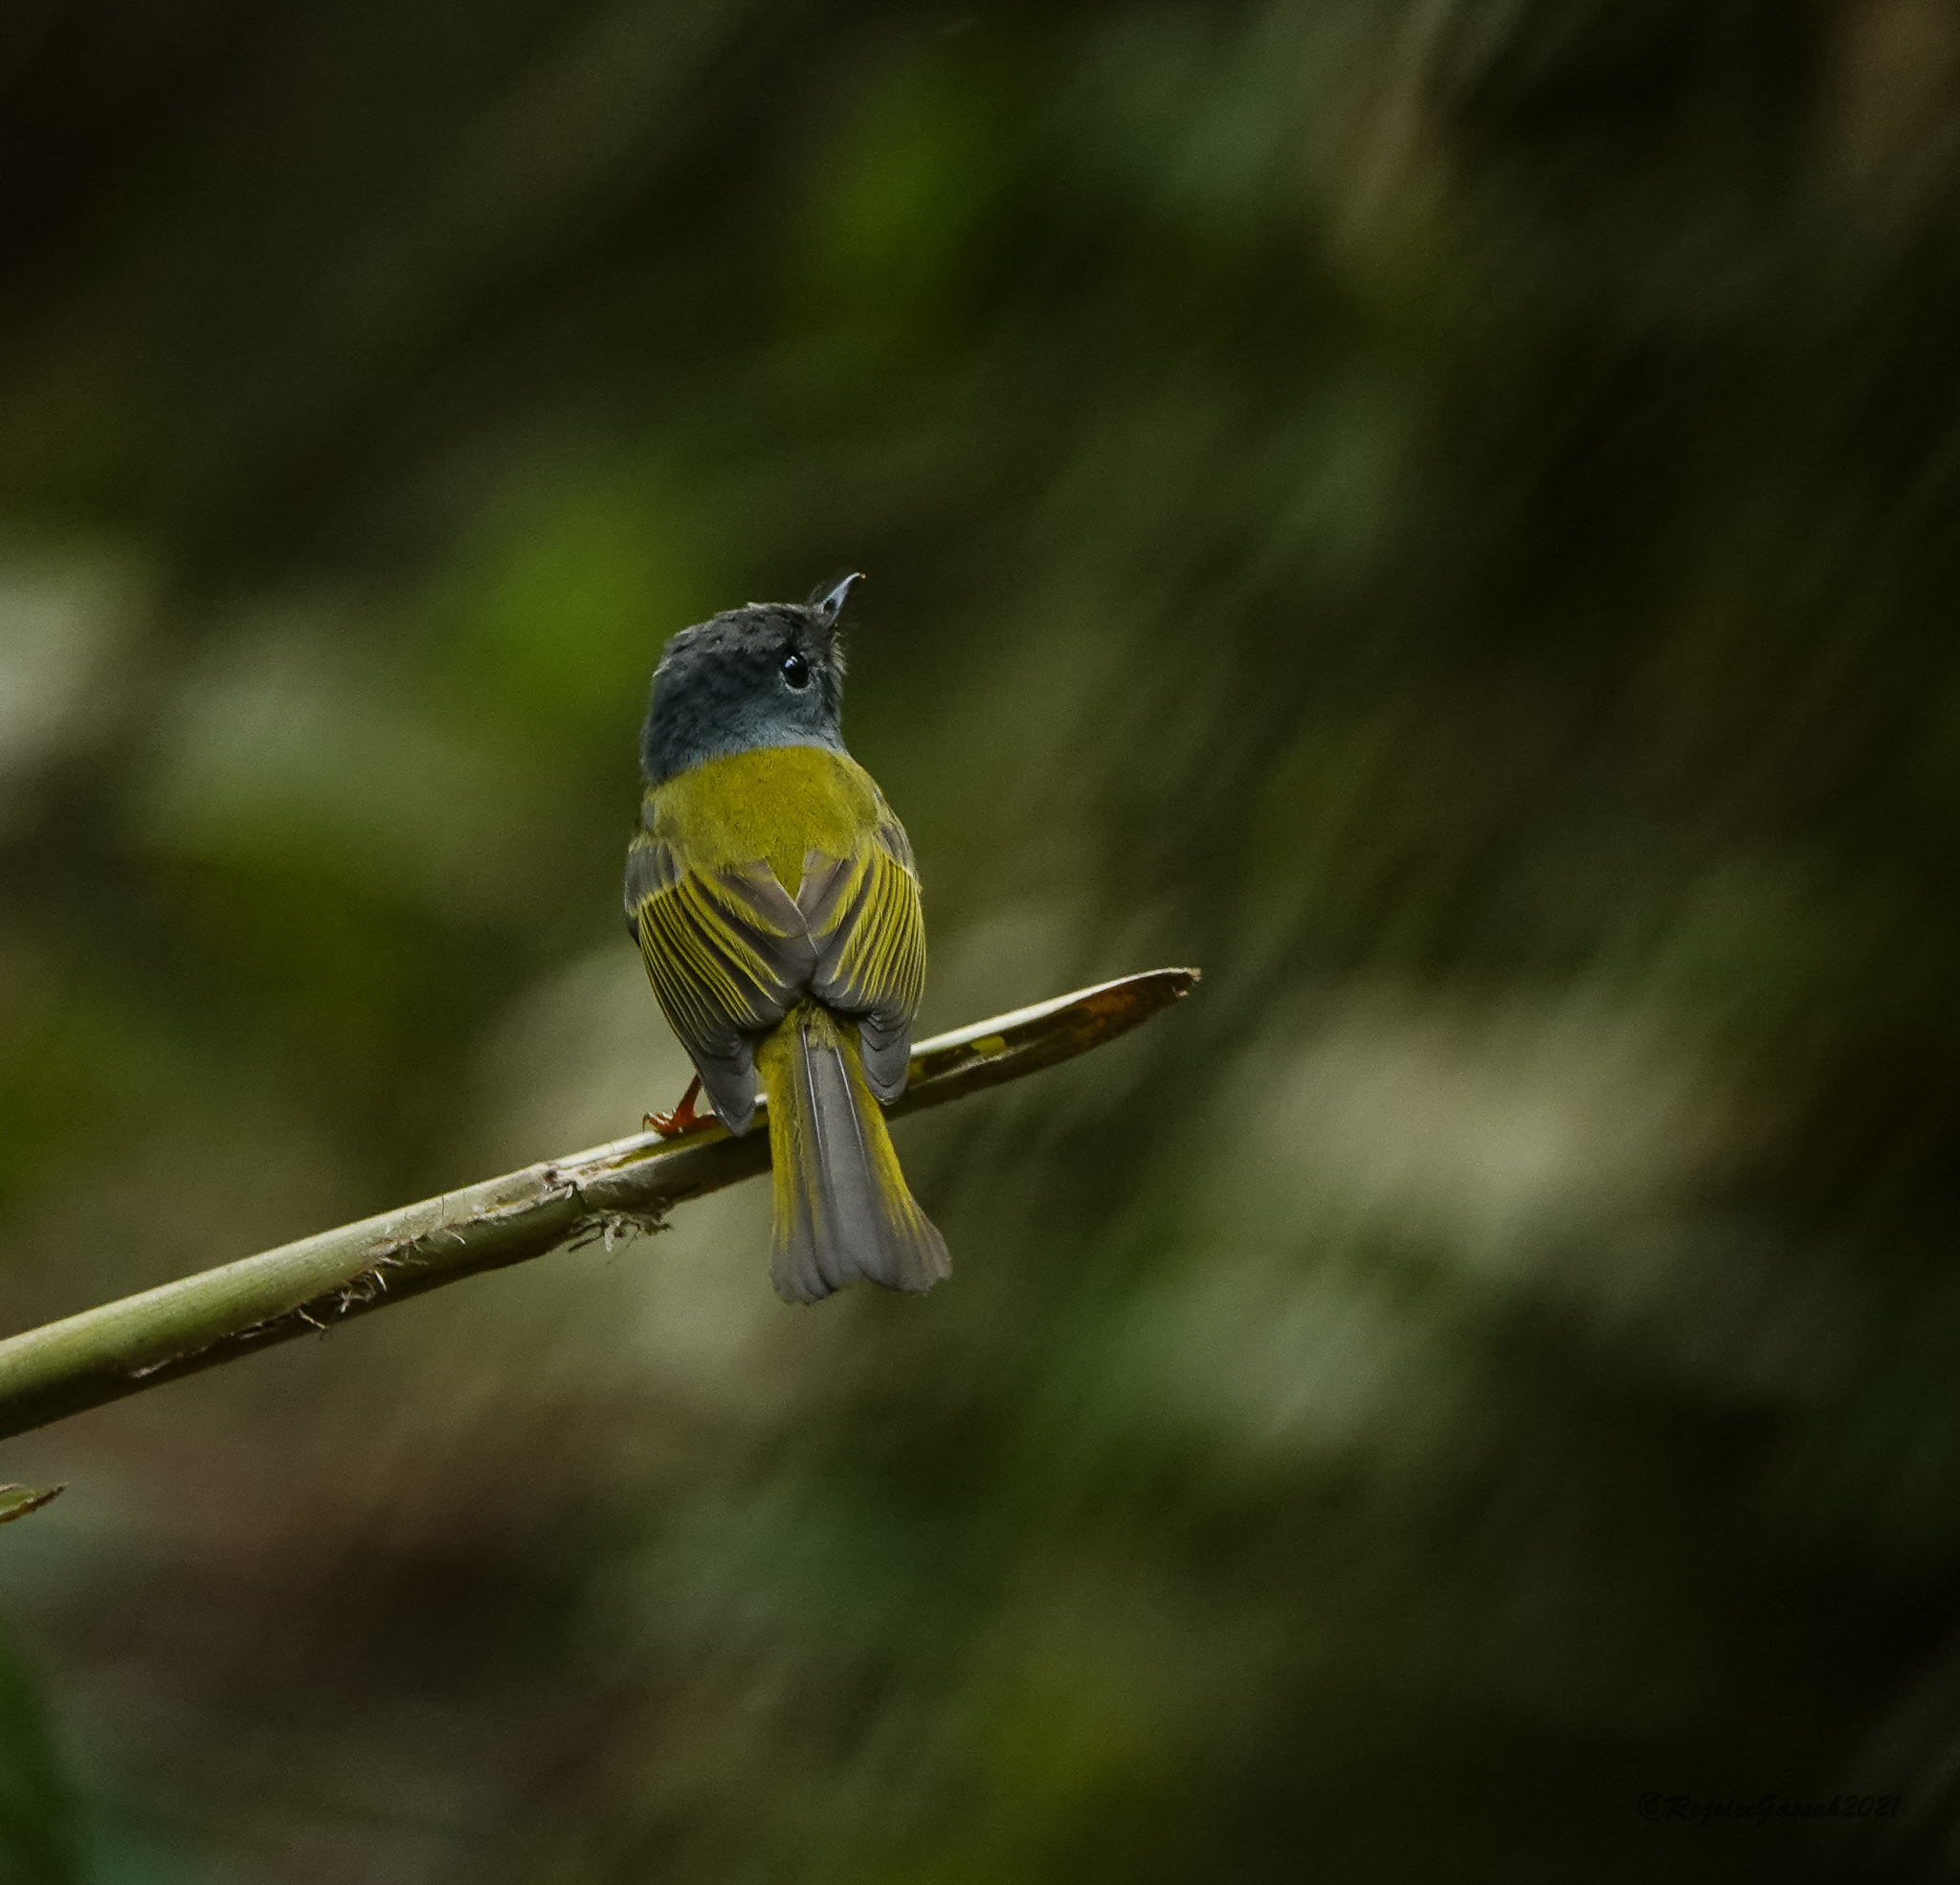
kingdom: Animalia
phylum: Chordata
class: Aves
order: Passeriformes
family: Stenostiridae
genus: Culicicapa
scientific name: Culicicapa ceylonensis
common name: Grey-headed canary-flycatcher
